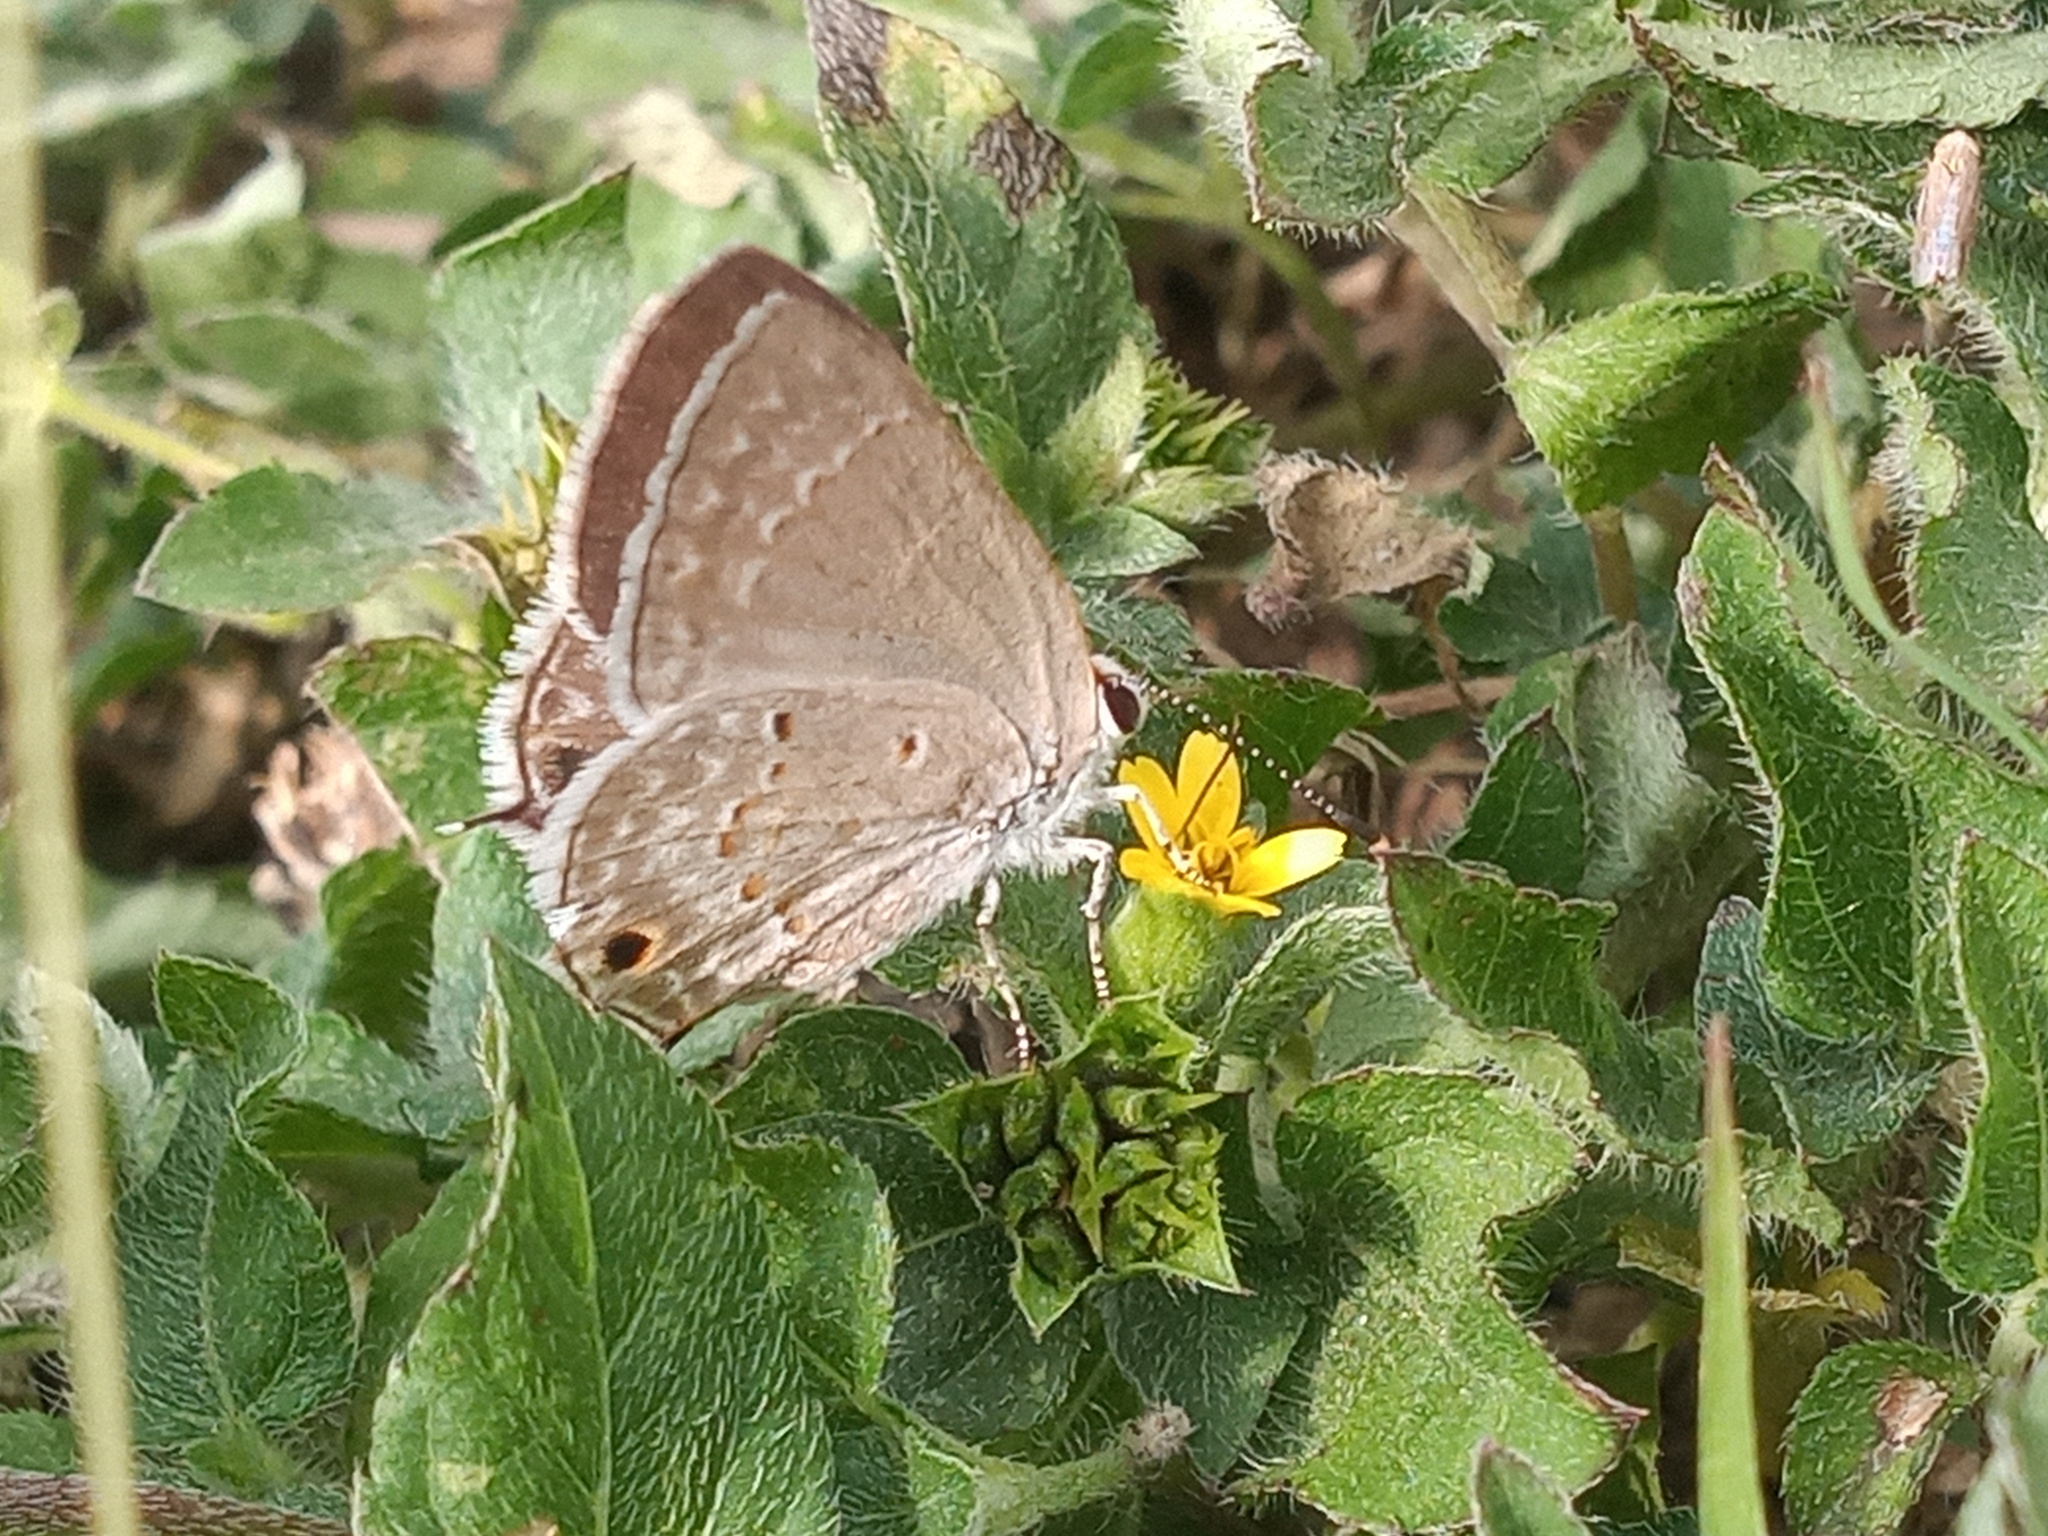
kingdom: Animalia
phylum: Arthropoda
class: Insecta
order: Lepidoptera
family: Lycaenidae
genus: Callicista
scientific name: Callicista columella
